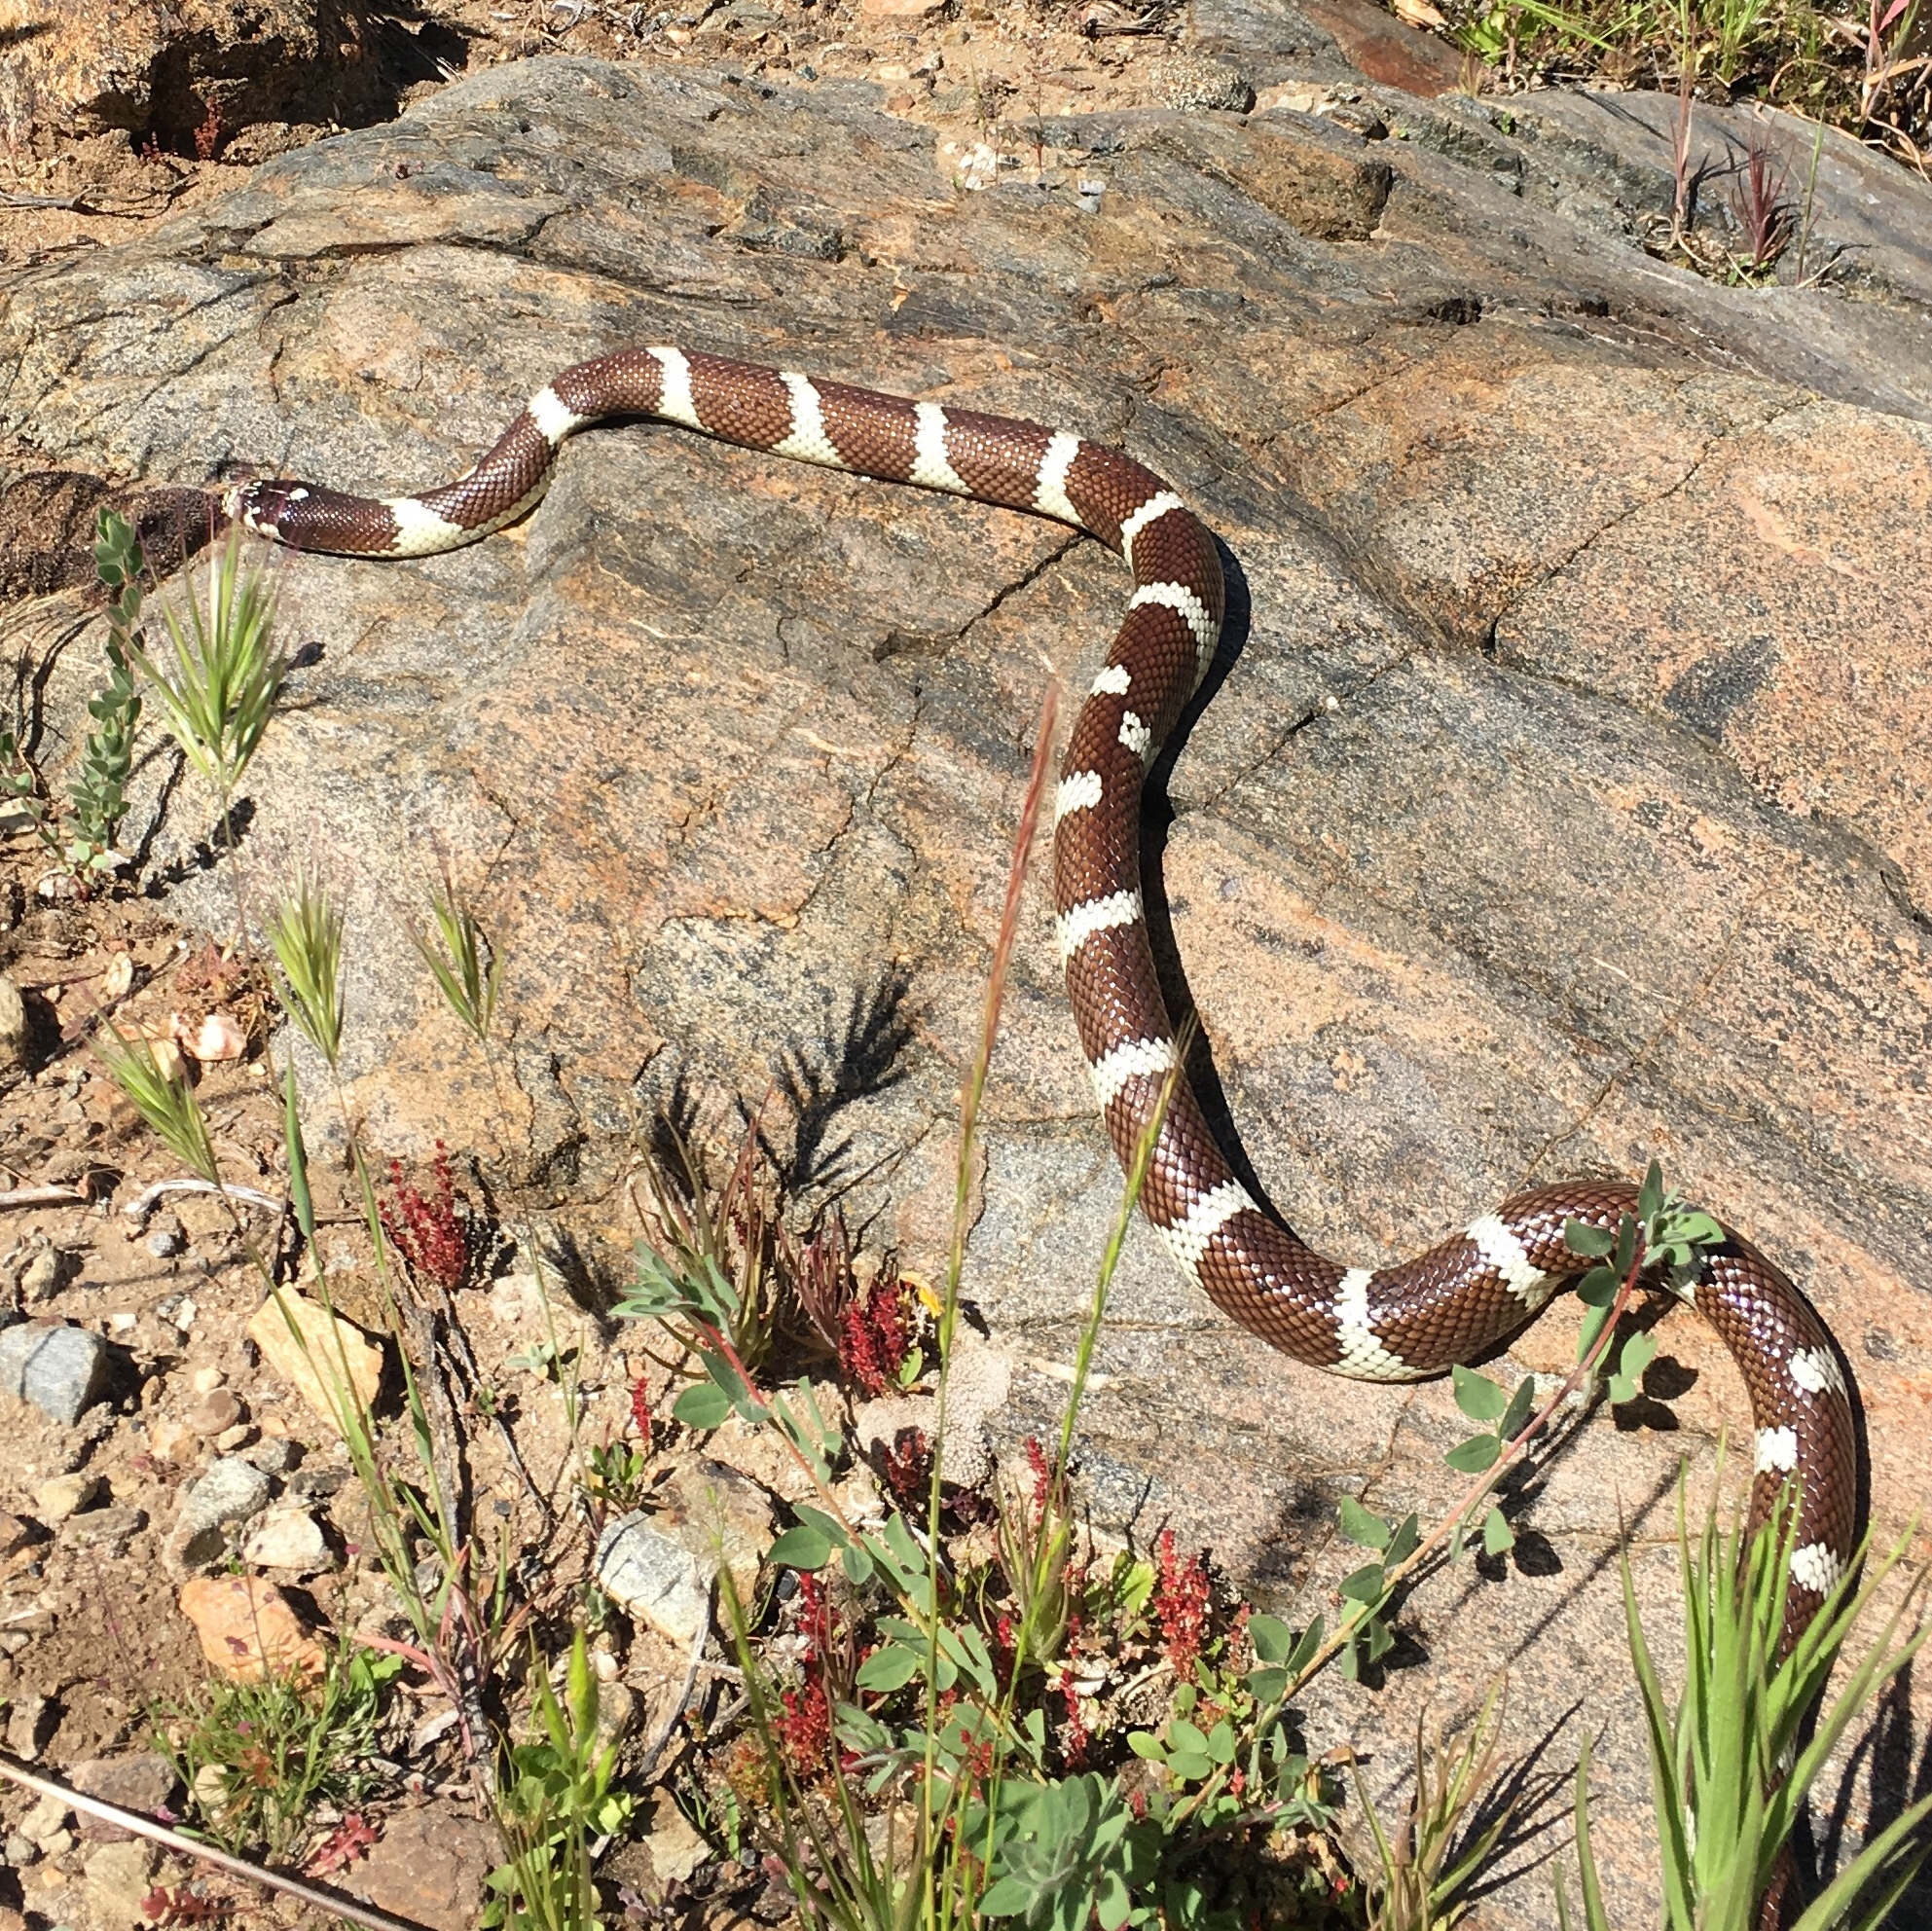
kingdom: Animalia
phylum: Chordata
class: Squamata
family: Colubridae
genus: Lampropeltis
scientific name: Lampropeltis californiae
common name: California kingsnake
